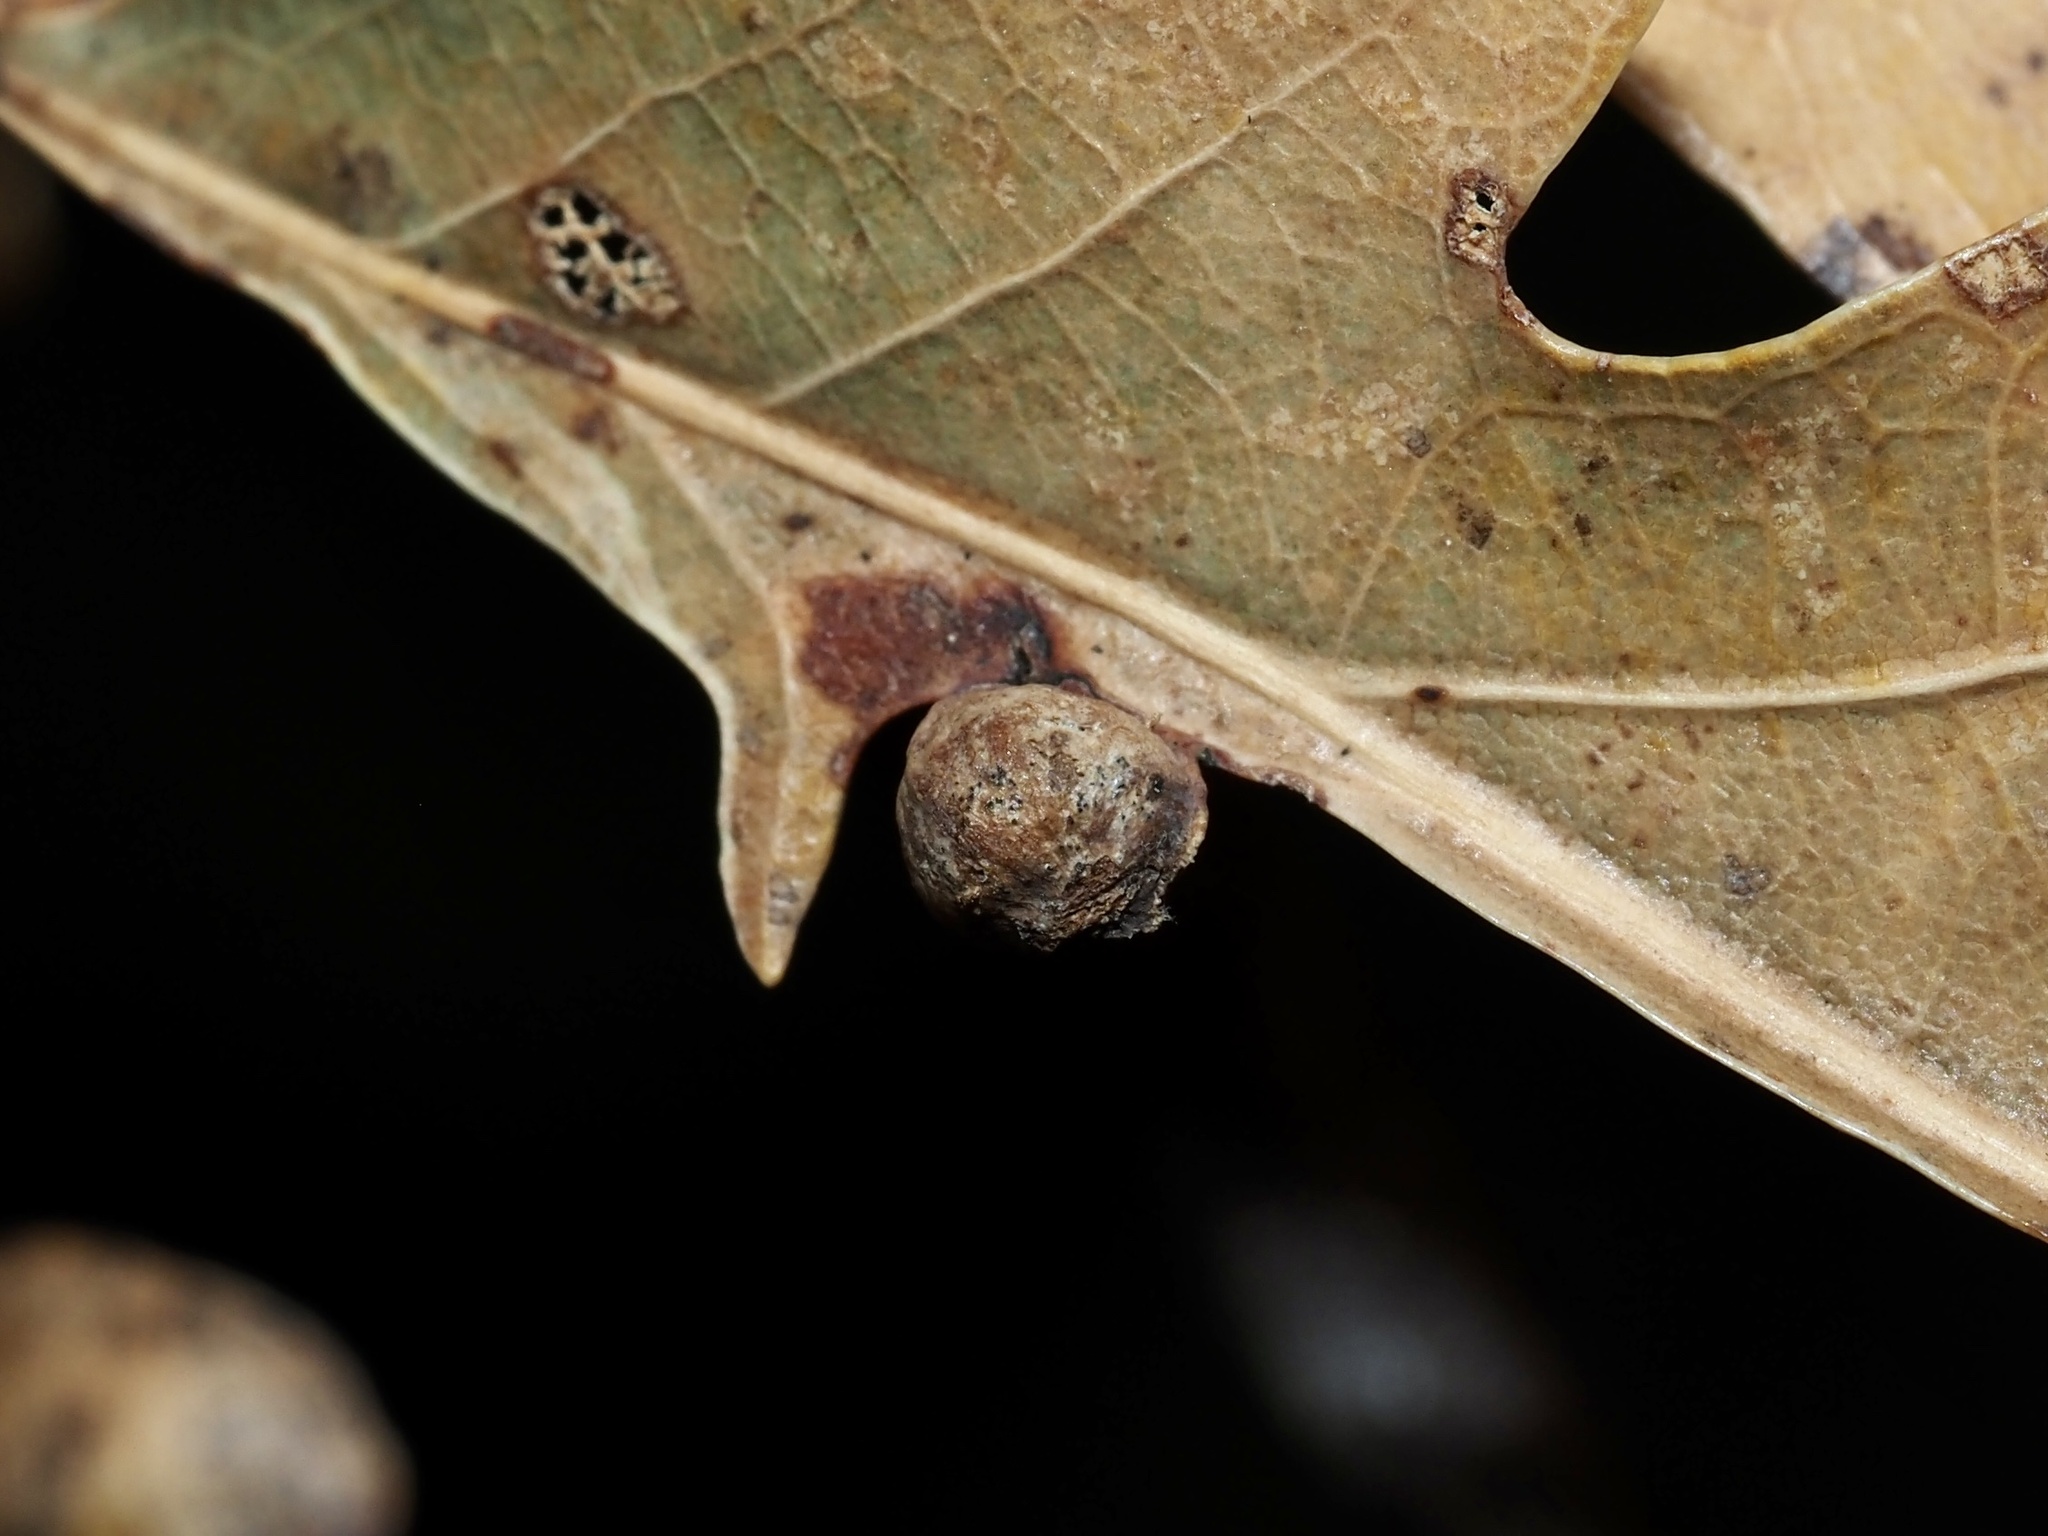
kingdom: Animalia
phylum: Arthropoda
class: Insecta
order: Hymenoptera
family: Cynipidae
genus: Andricus
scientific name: Andricus
